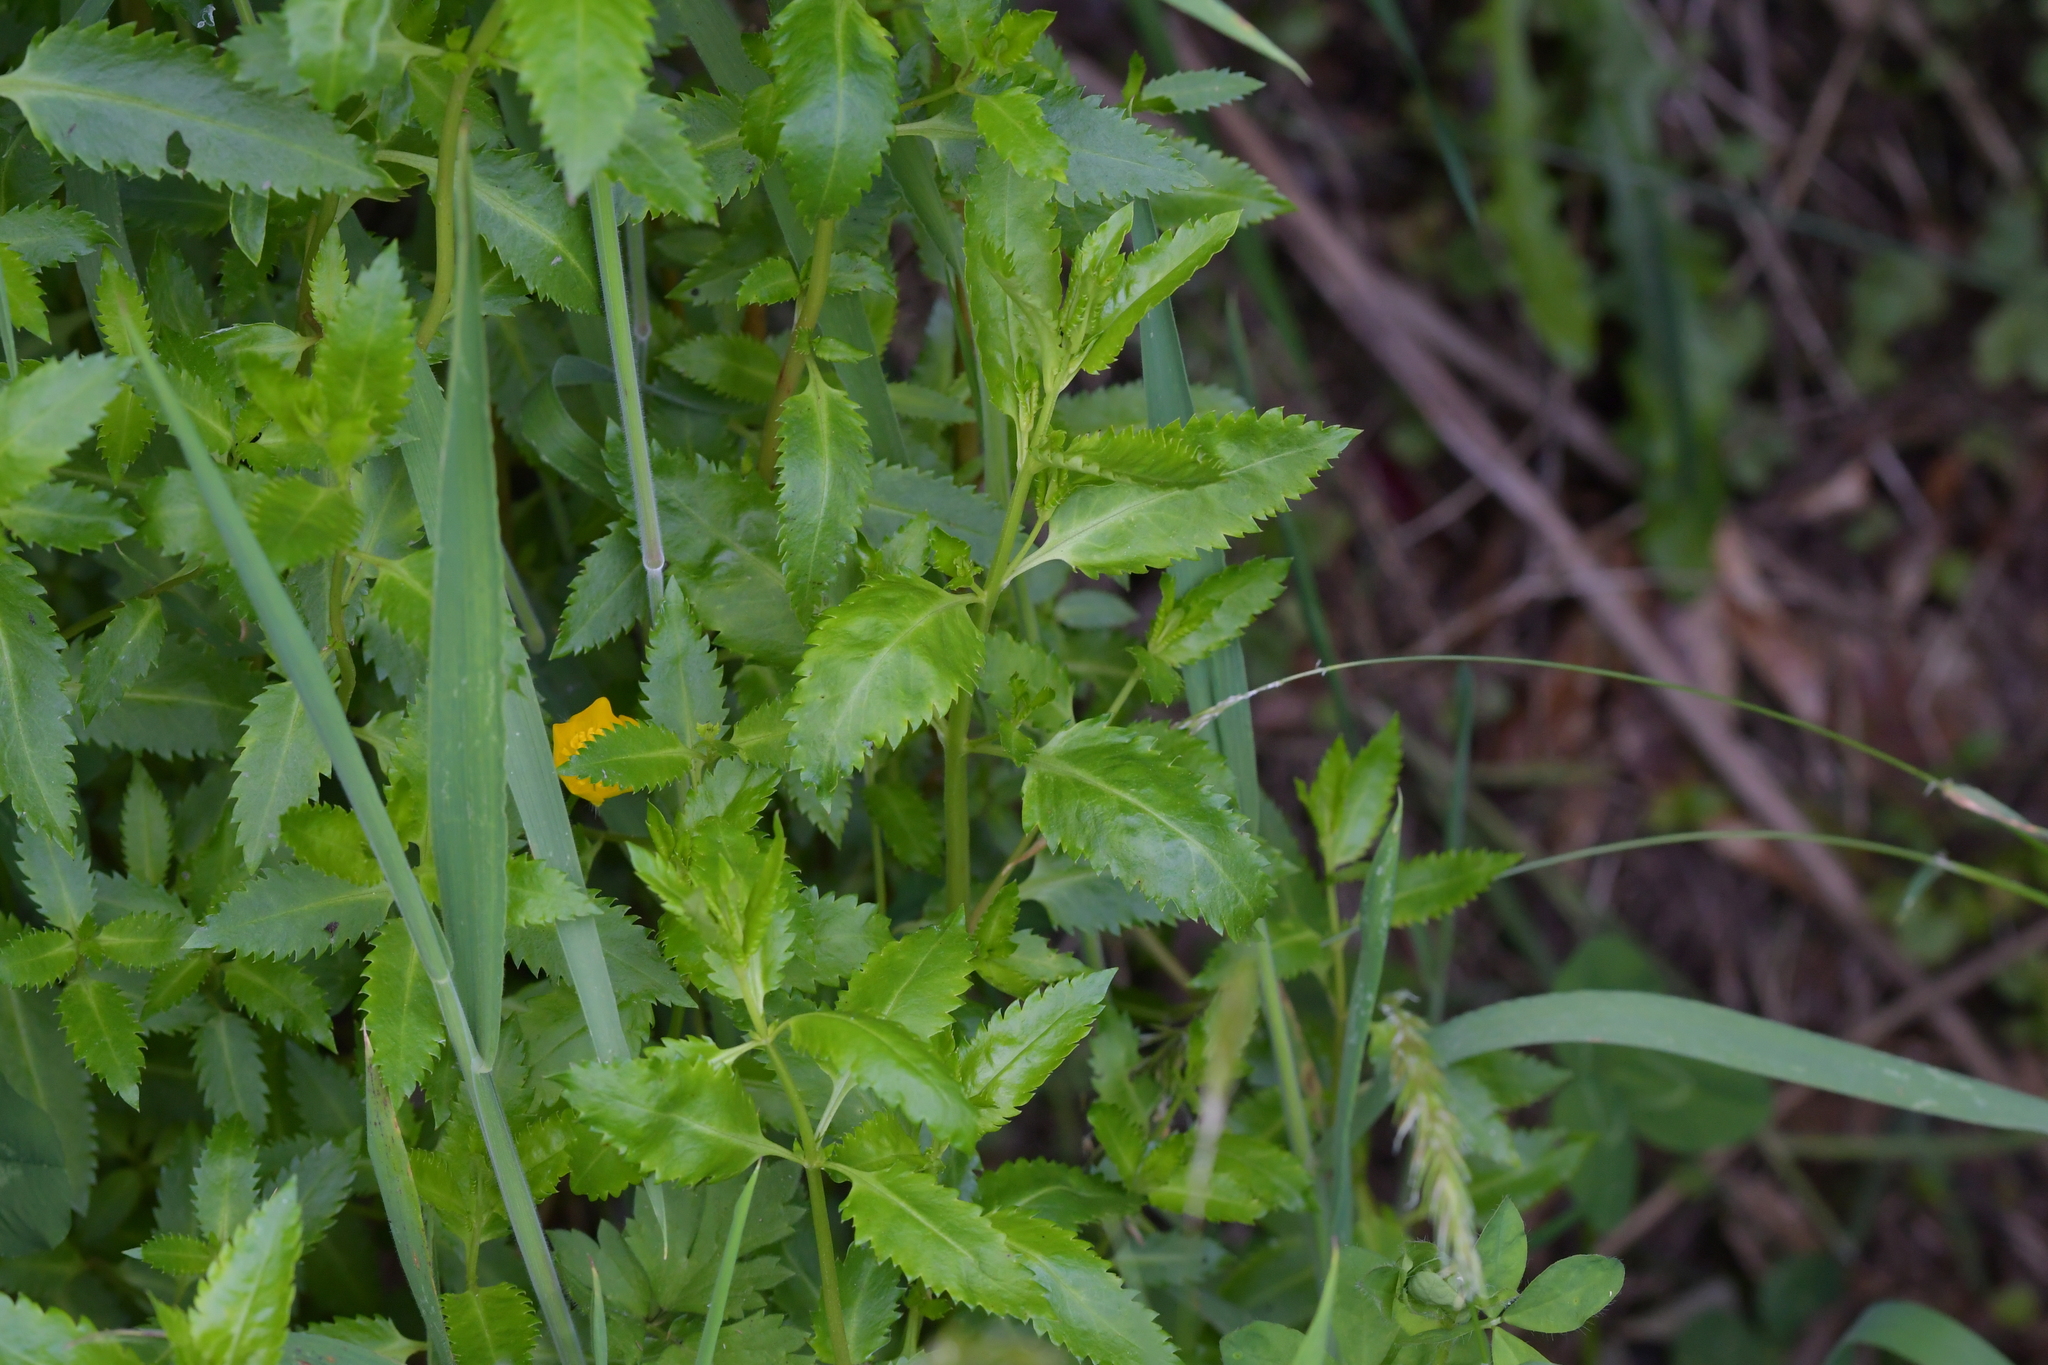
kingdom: Plantae
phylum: Tracheophyta
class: Magnoliopsida
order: Saxifragales
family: Haloragaceae
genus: Haloragis
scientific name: Haloragis erecta
